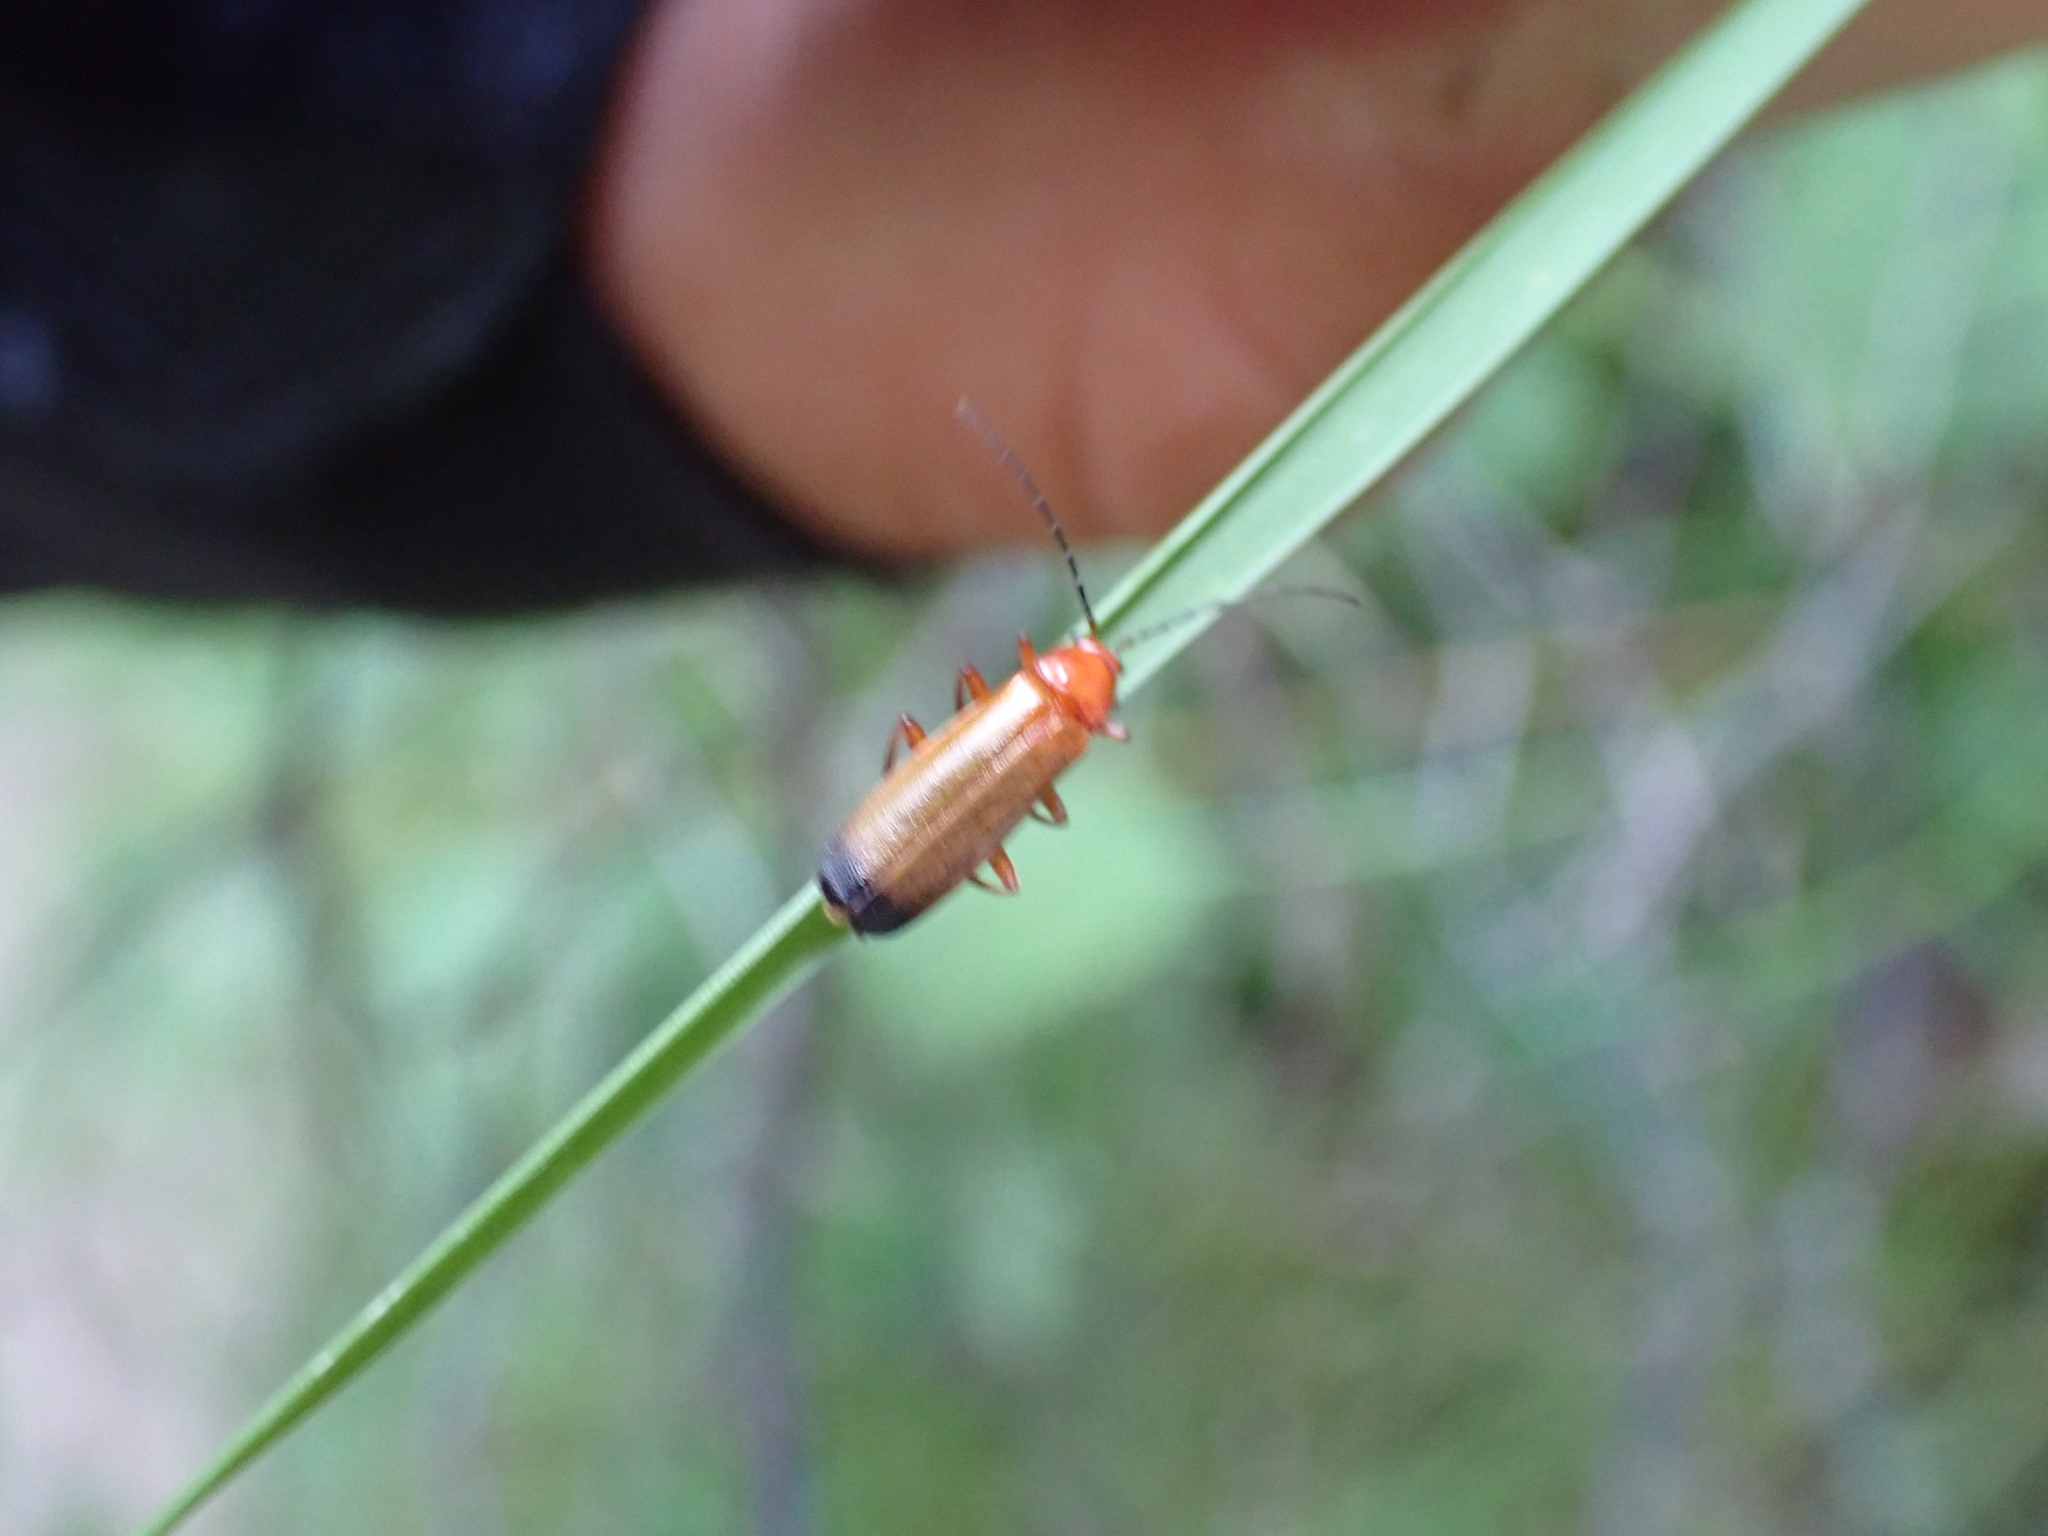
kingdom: Animalia
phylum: Arthropoda
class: Insecta
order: Coleoptera
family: Cantharidae
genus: Rhagonycha
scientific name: Rhagonycha fulva
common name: Common red soldier beetle
